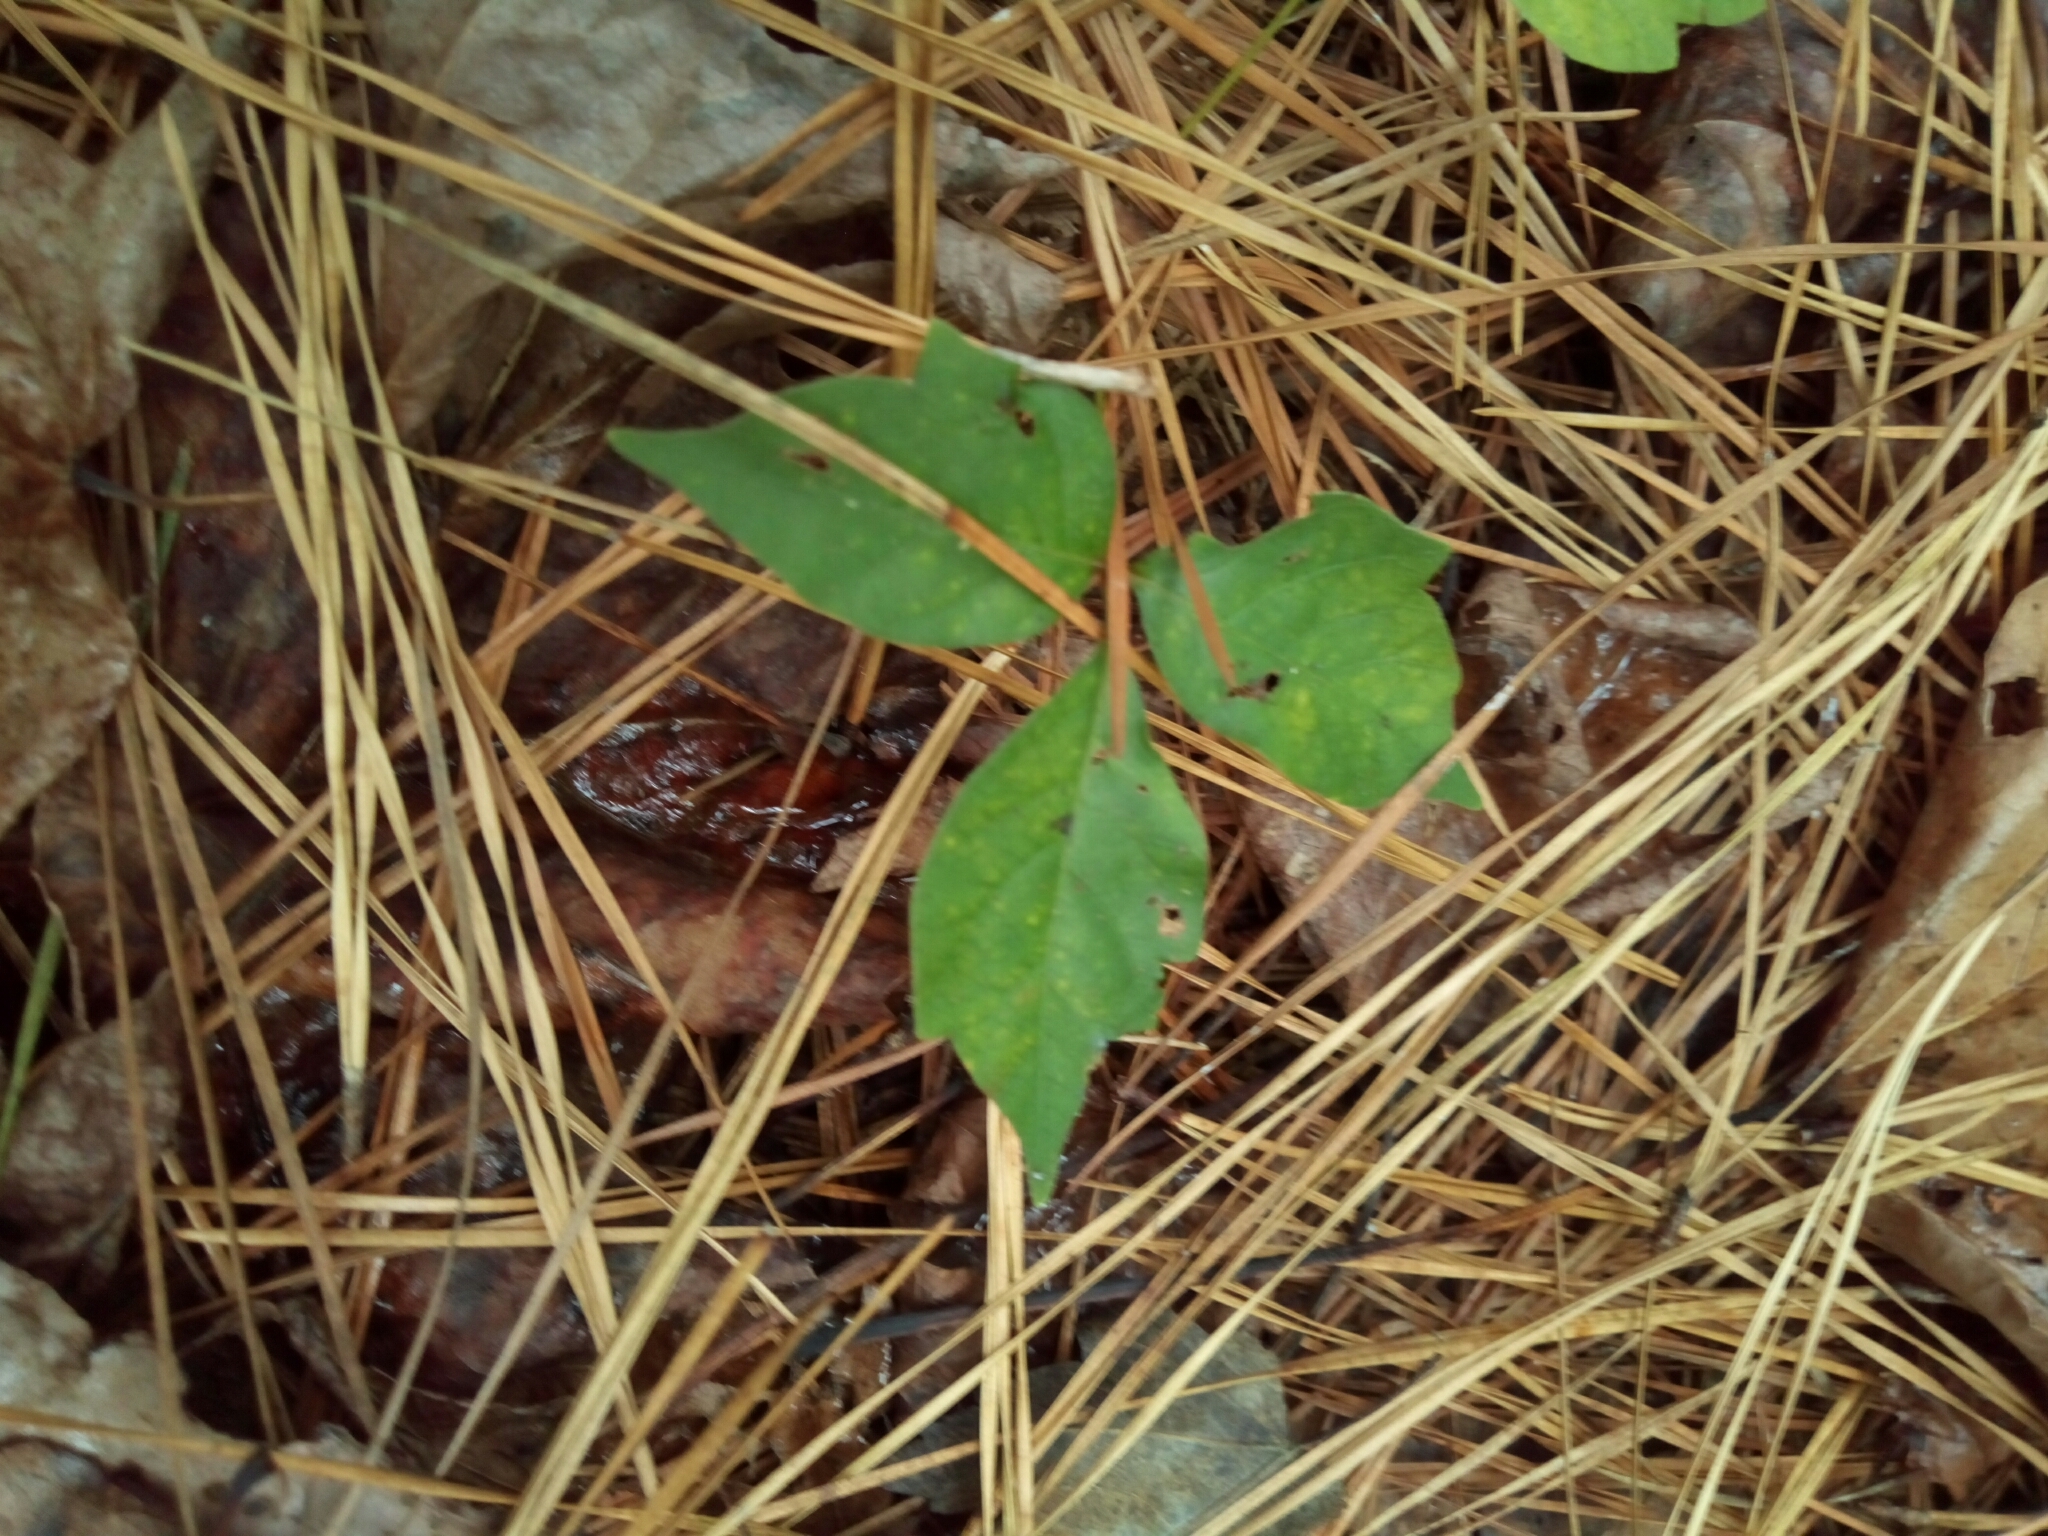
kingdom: Plantae
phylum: Tracheophyta
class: Magnoliopsida
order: Sapindales
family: Anacardiaceae
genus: Toxicodendron
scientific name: Toxicodendron radicans
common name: Poison ivy
